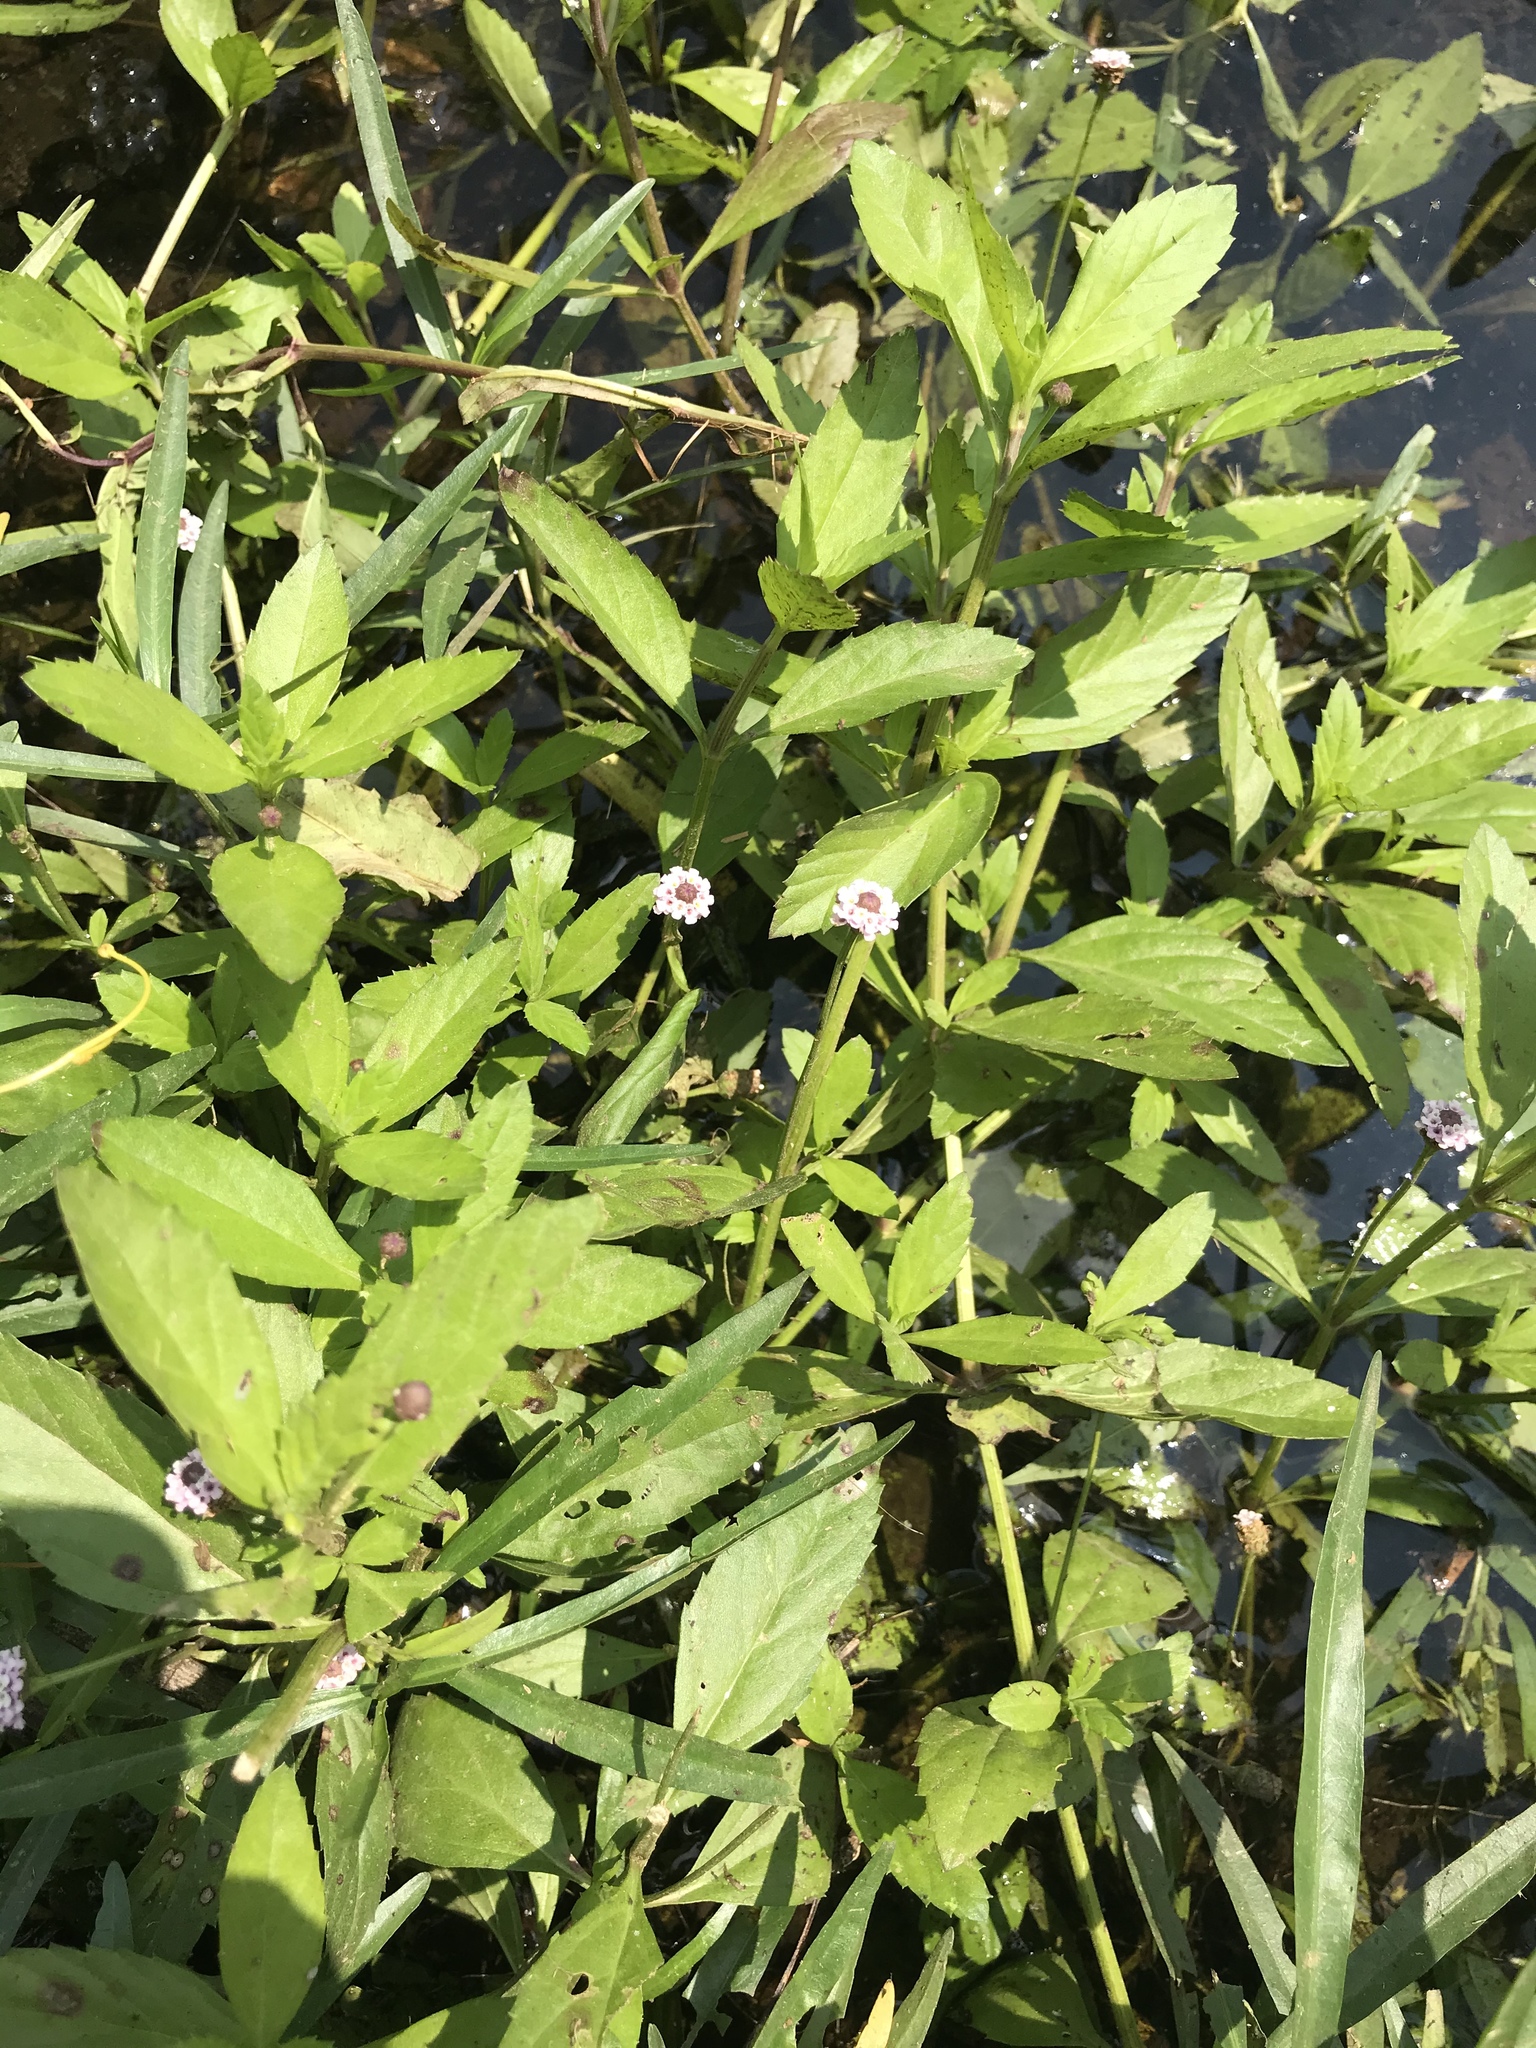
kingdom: Plantae
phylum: Tracheophyta
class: Magnoliopsida
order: Lamiales
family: Verbenaceae
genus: Phyla
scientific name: Phyla lanceolata
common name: Northern fogfruit
